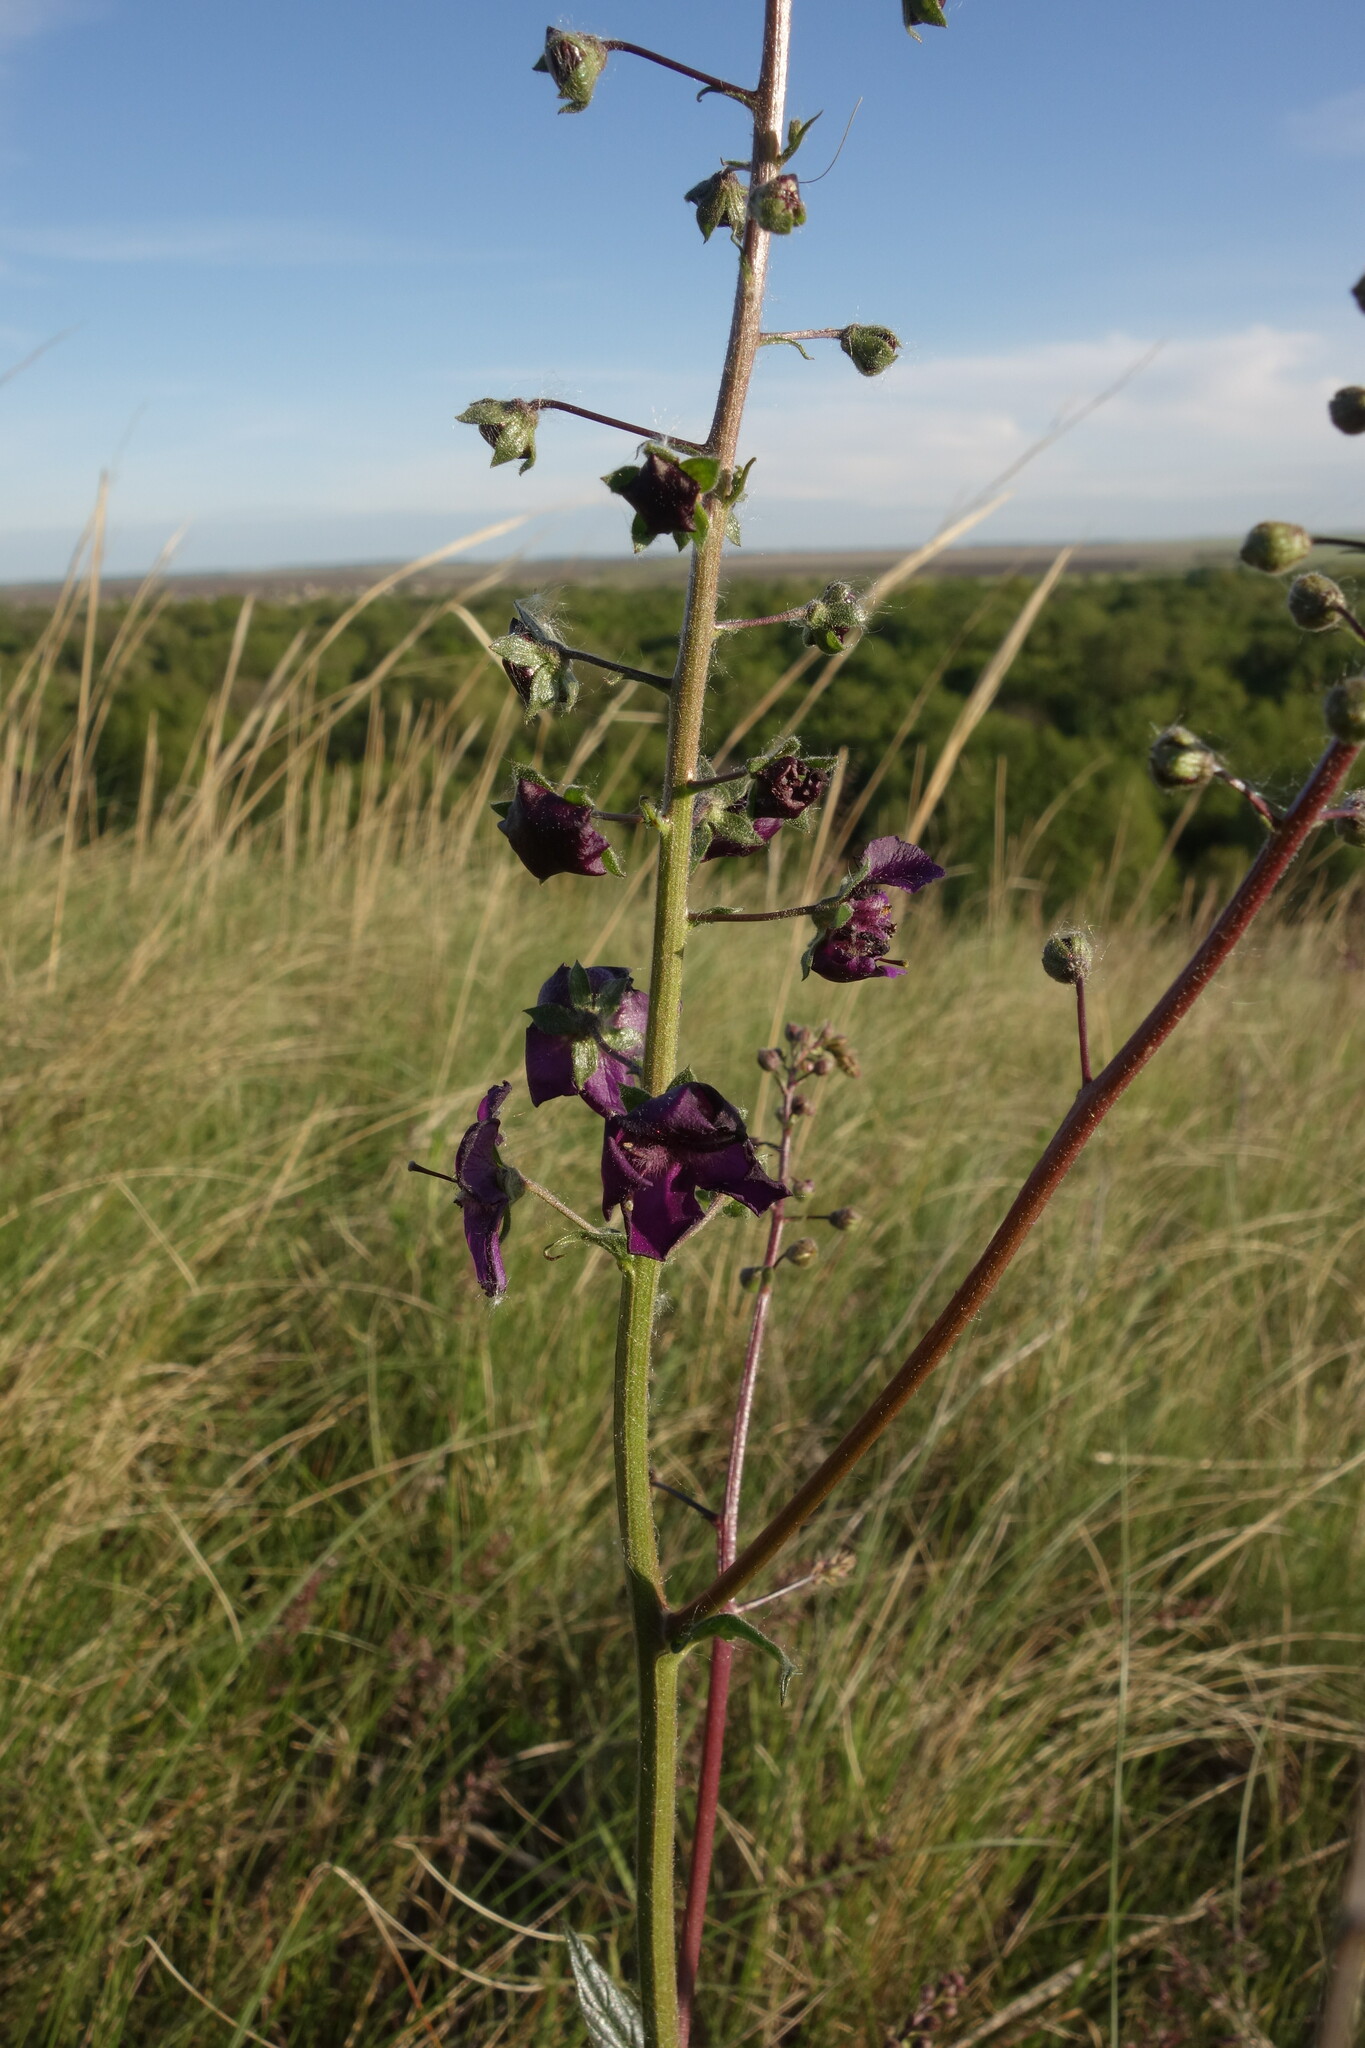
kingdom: Plantae
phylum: Tracheophyta
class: Magnoliopsida
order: Lamiales
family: Scrophulariaceae
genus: Verbascum
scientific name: Verbascum phoeniceum
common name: Purple mullein
